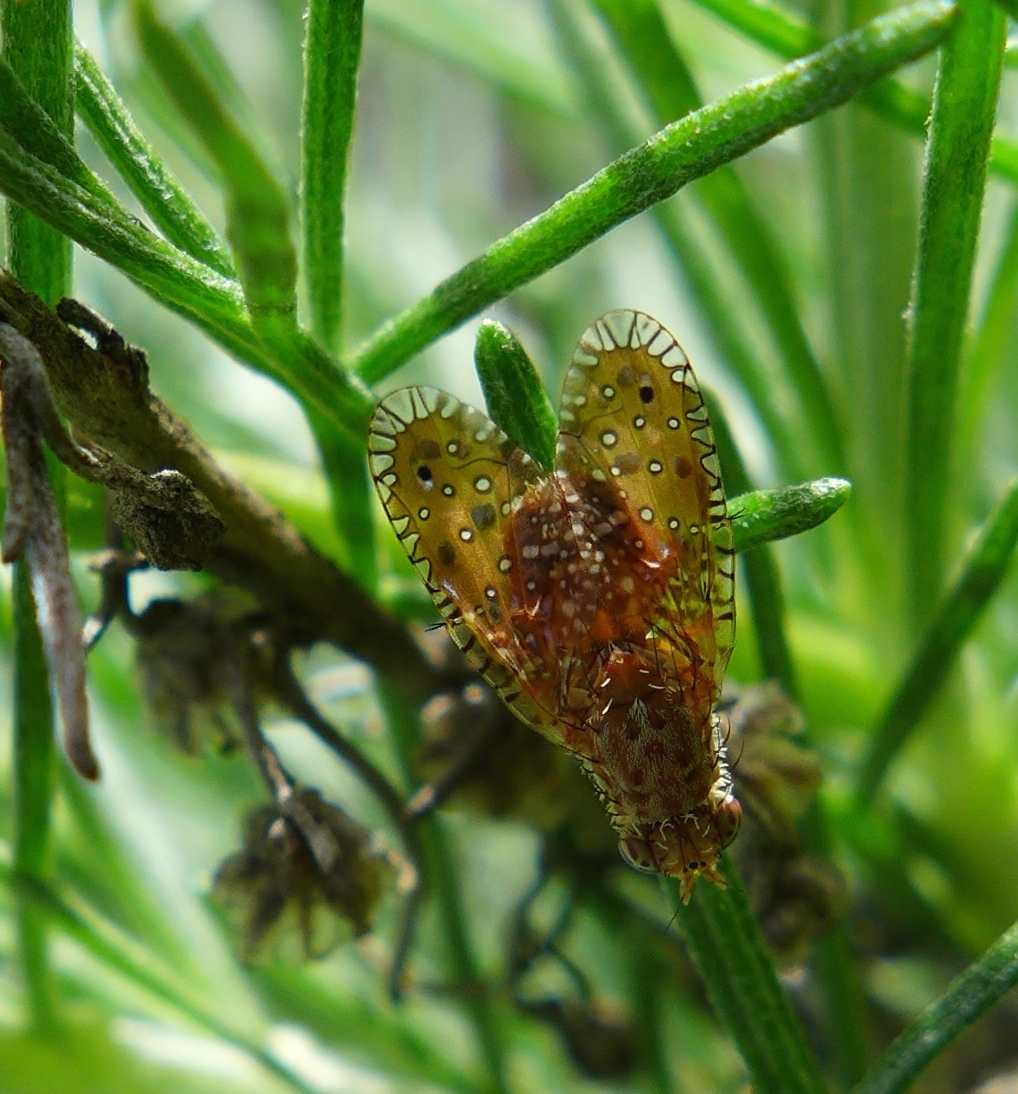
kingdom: Animalia
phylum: Arthropoda
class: Insecta
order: Diptera
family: Tephritidae
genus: Paracantha
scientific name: Paracantha gentilis
